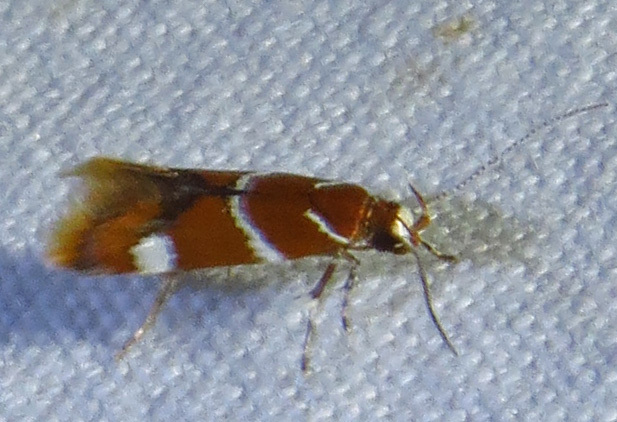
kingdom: Animalia
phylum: Arthropoda
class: Insecta
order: Lepidoptera
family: Oecophoridae
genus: Promalactis
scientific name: Promalactis suzukiella
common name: Moth
